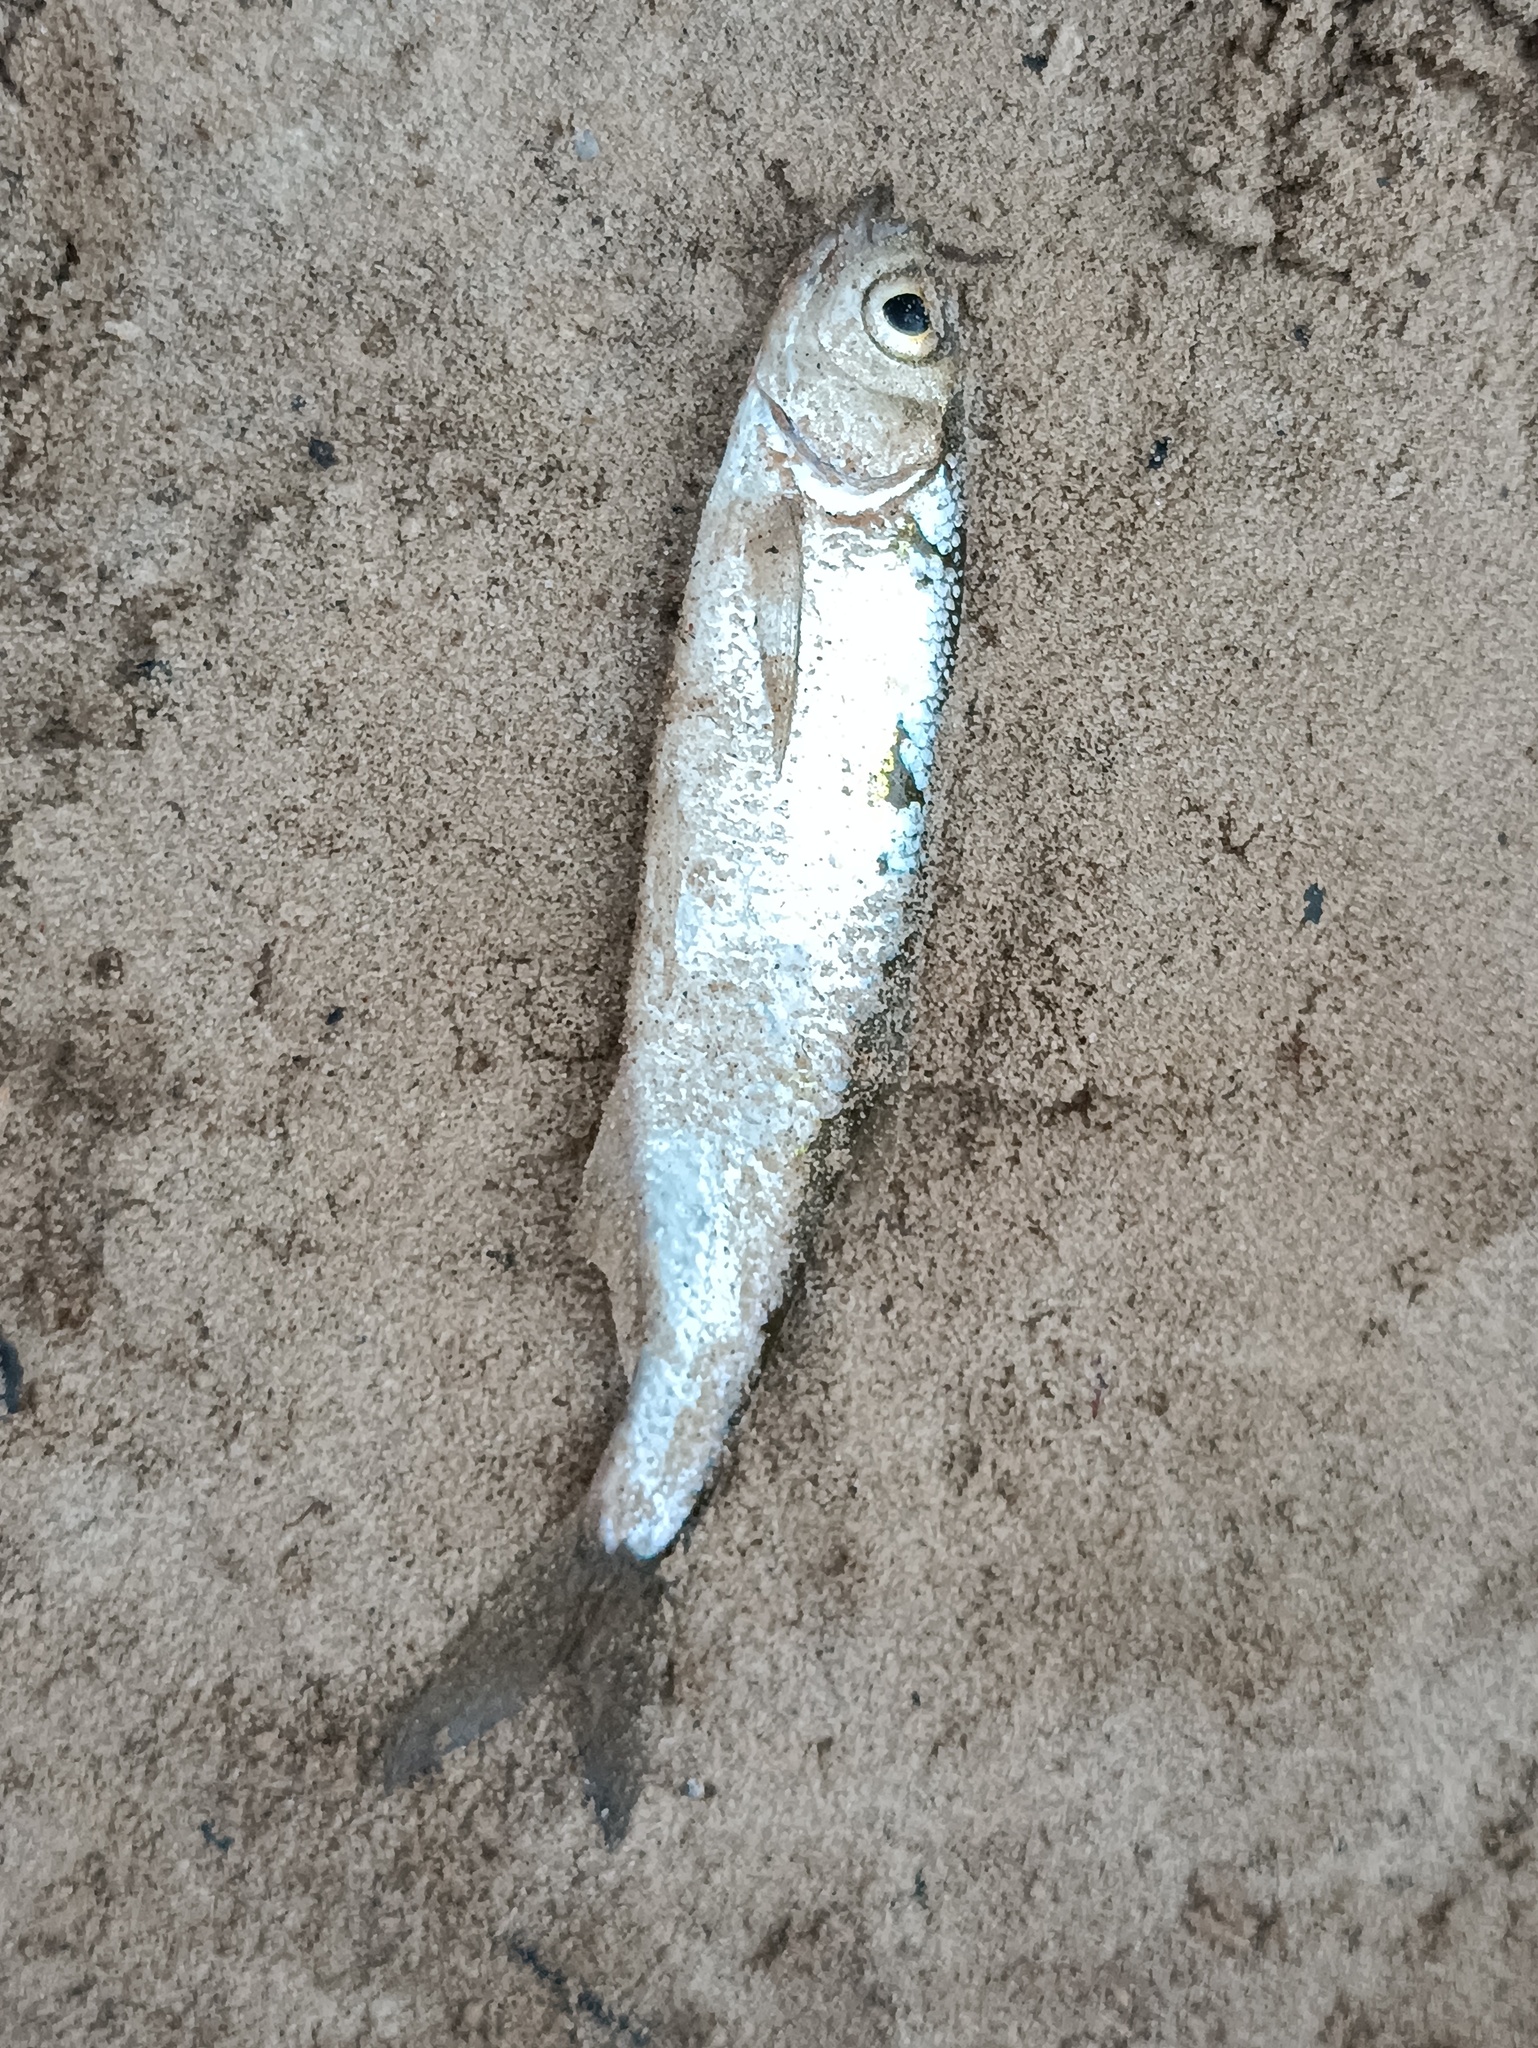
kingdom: Animalia
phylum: Chordata
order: Cypriniformes
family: Cyprinidae
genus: Alburnus
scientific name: Alburnus alburnus
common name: Bleak
